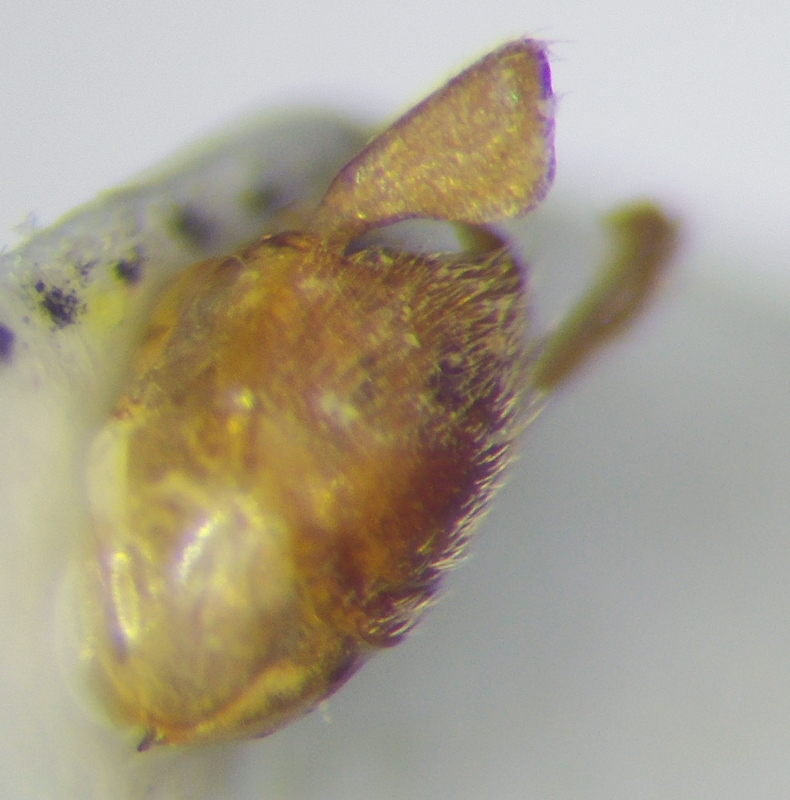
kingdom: Animalia
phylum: Arthropoda
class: Insecta
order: Hemiptera
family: Reduviidae
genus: Pasira
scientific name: Pasira marinadolina
